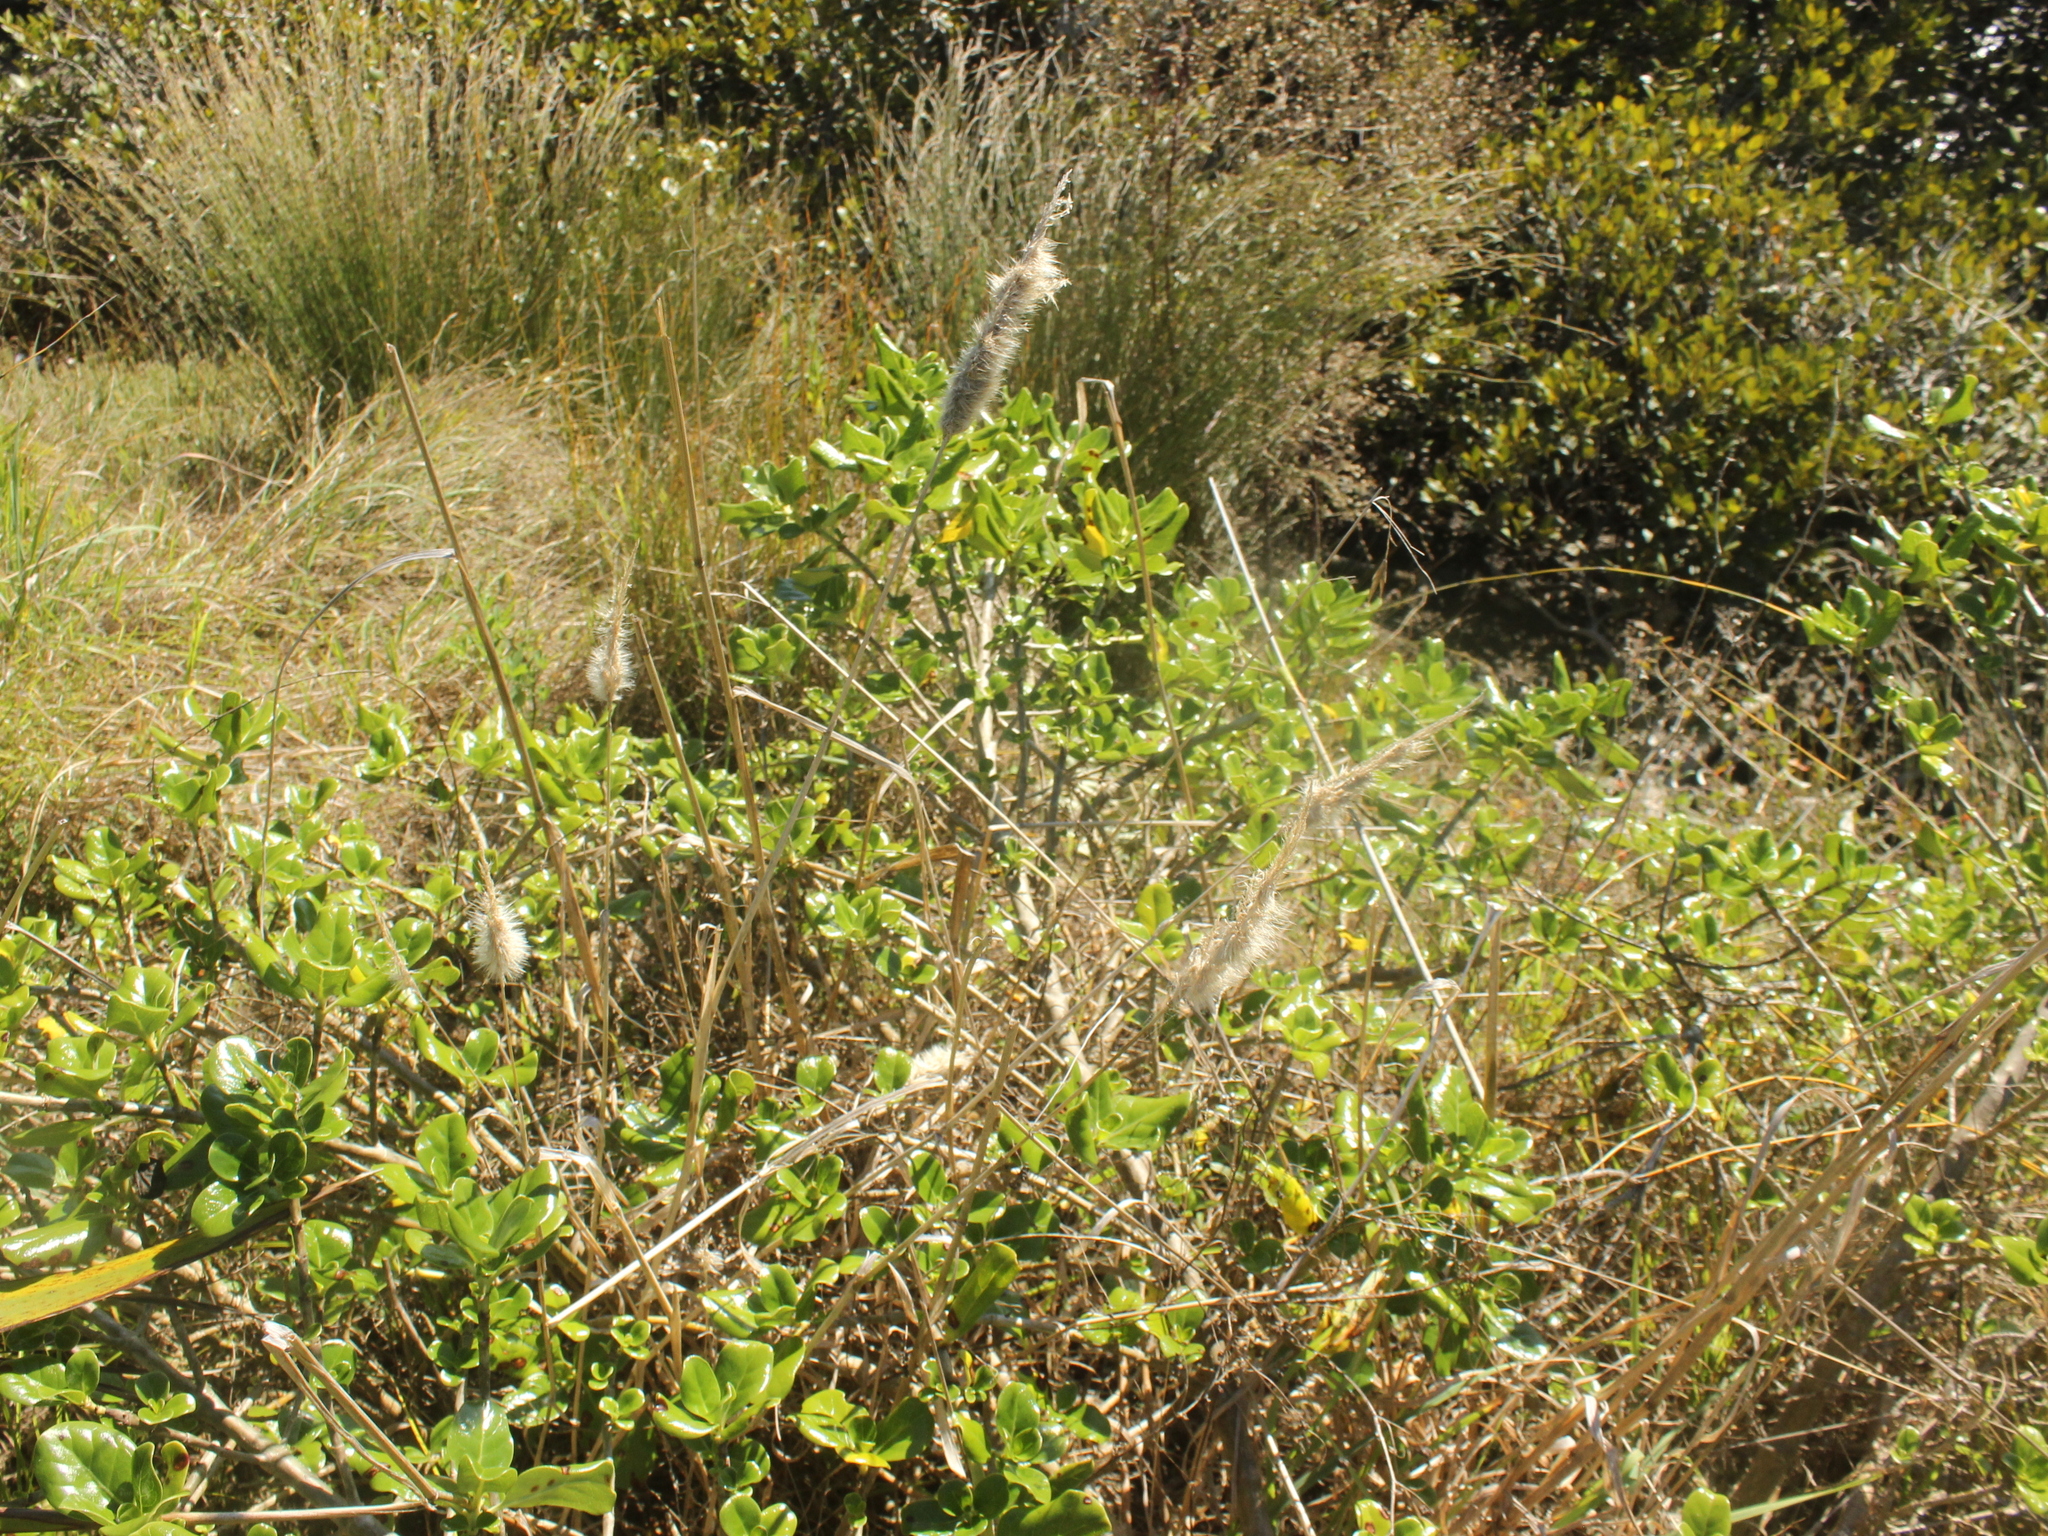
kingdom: Plantae
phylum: Tracheophyta
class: Liliopsida
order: Poales
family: Poaceae
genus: Polypogon
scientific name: Polypogon monspeliensis
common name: Annual rabbitsfoot grass
